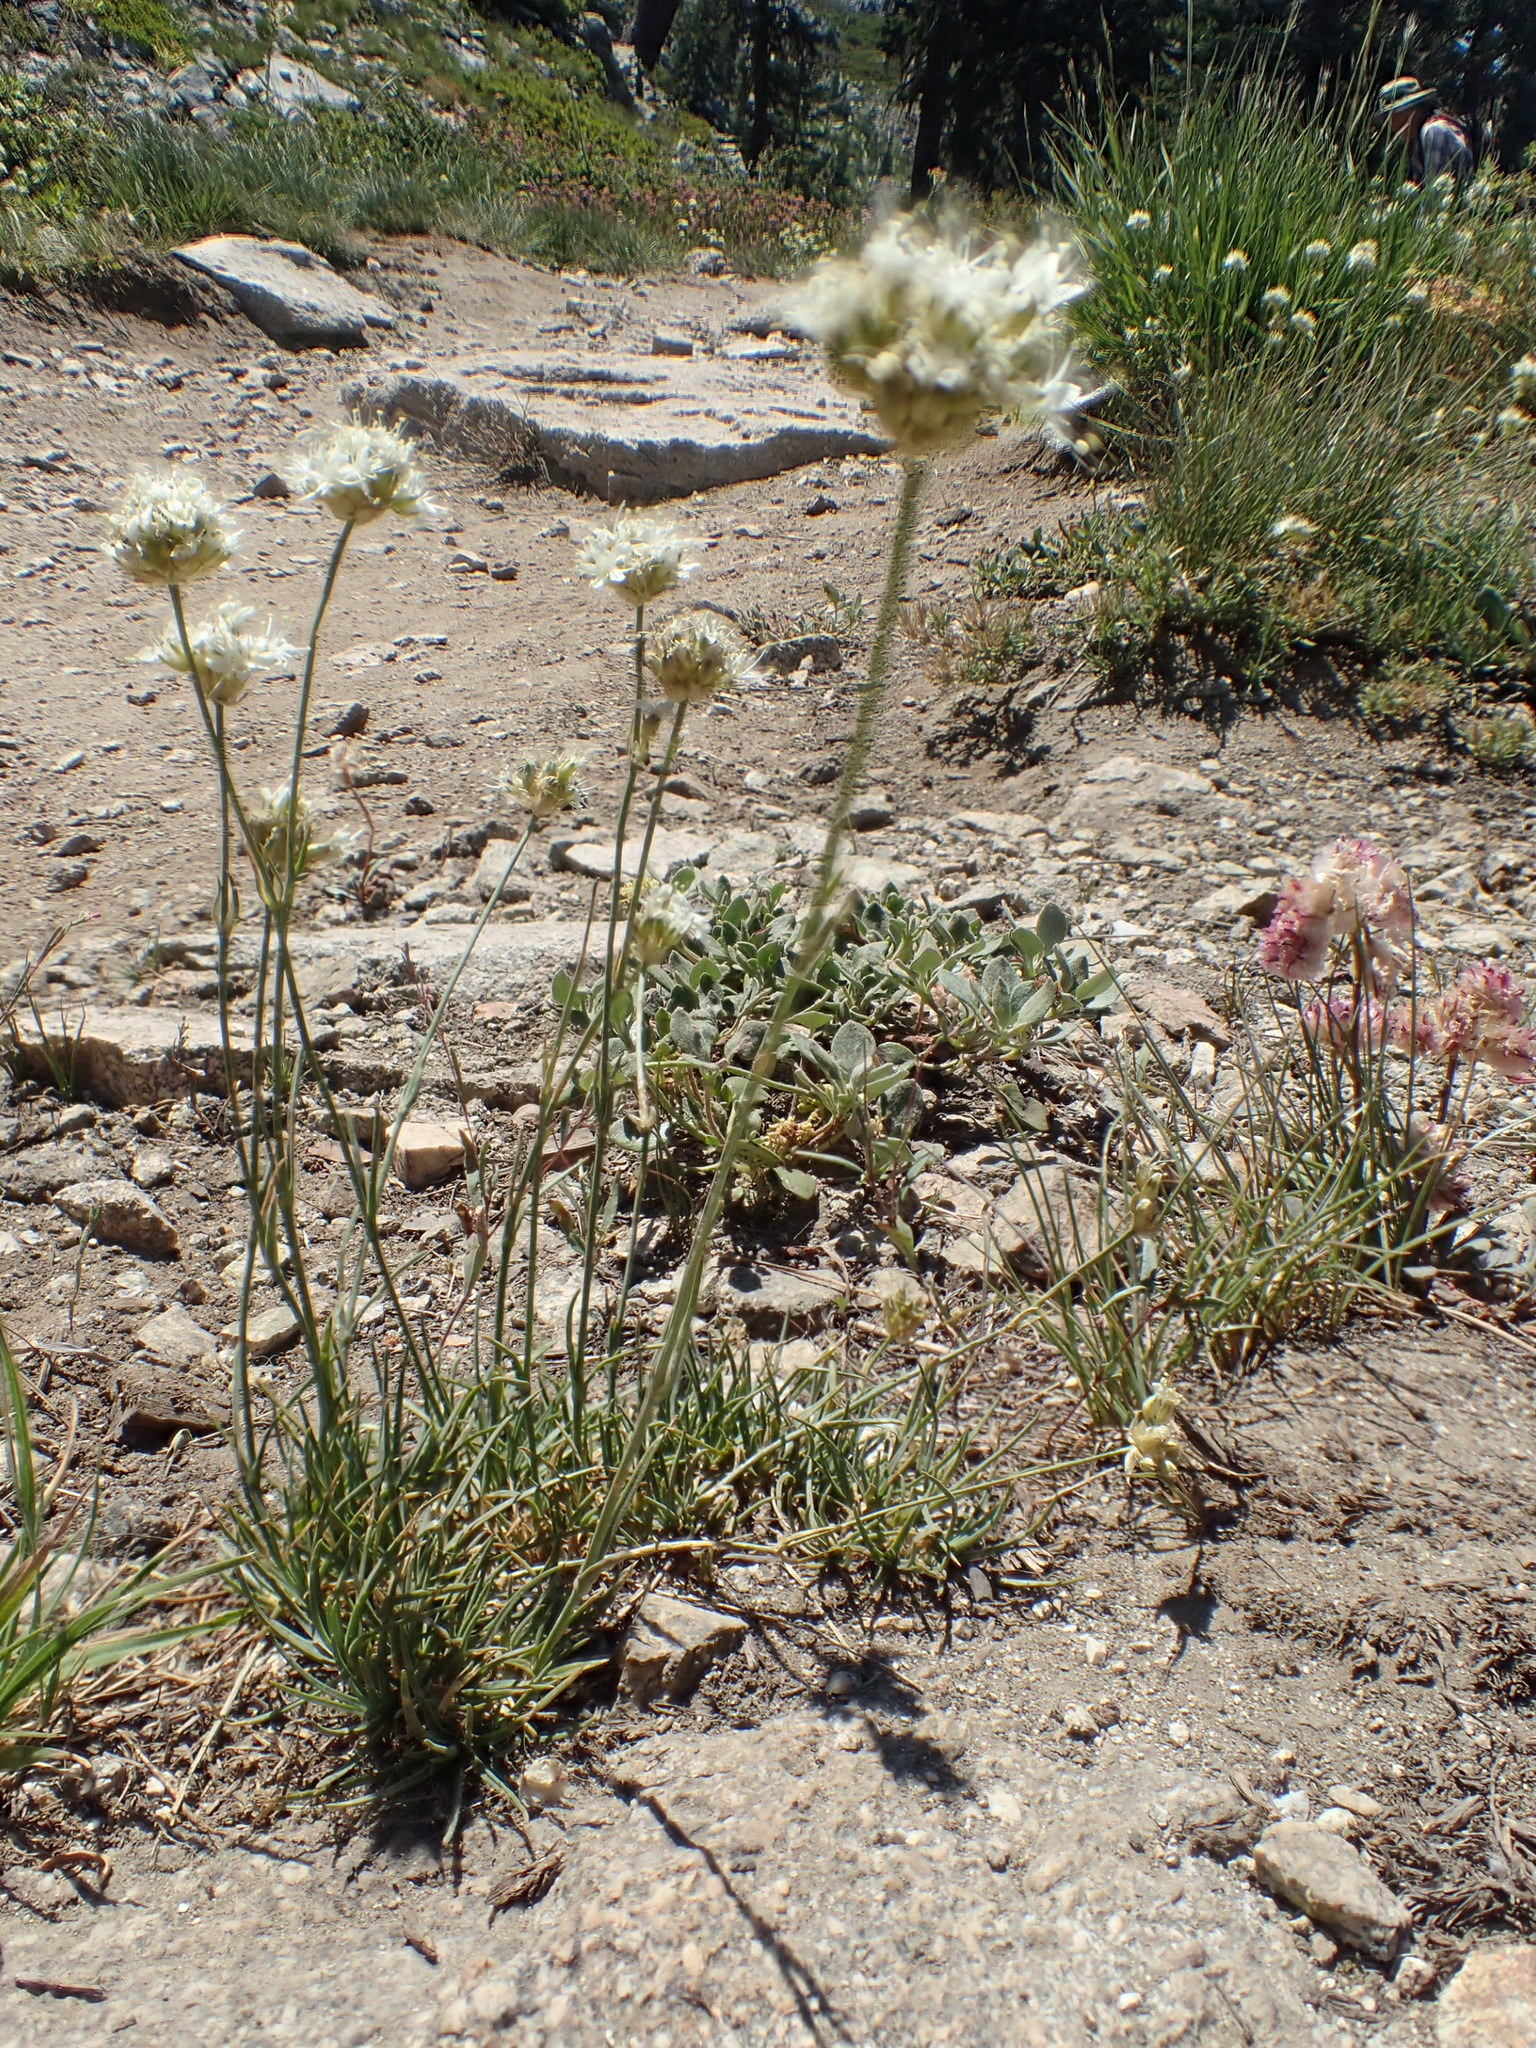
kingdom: Plantae
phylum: Tracheophyta
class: Magnoliopsida
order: Caryophyllales
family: Caryophyllaceae
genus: Eremogone
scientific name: Eremogone congesta
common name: Ballhead sandwort
